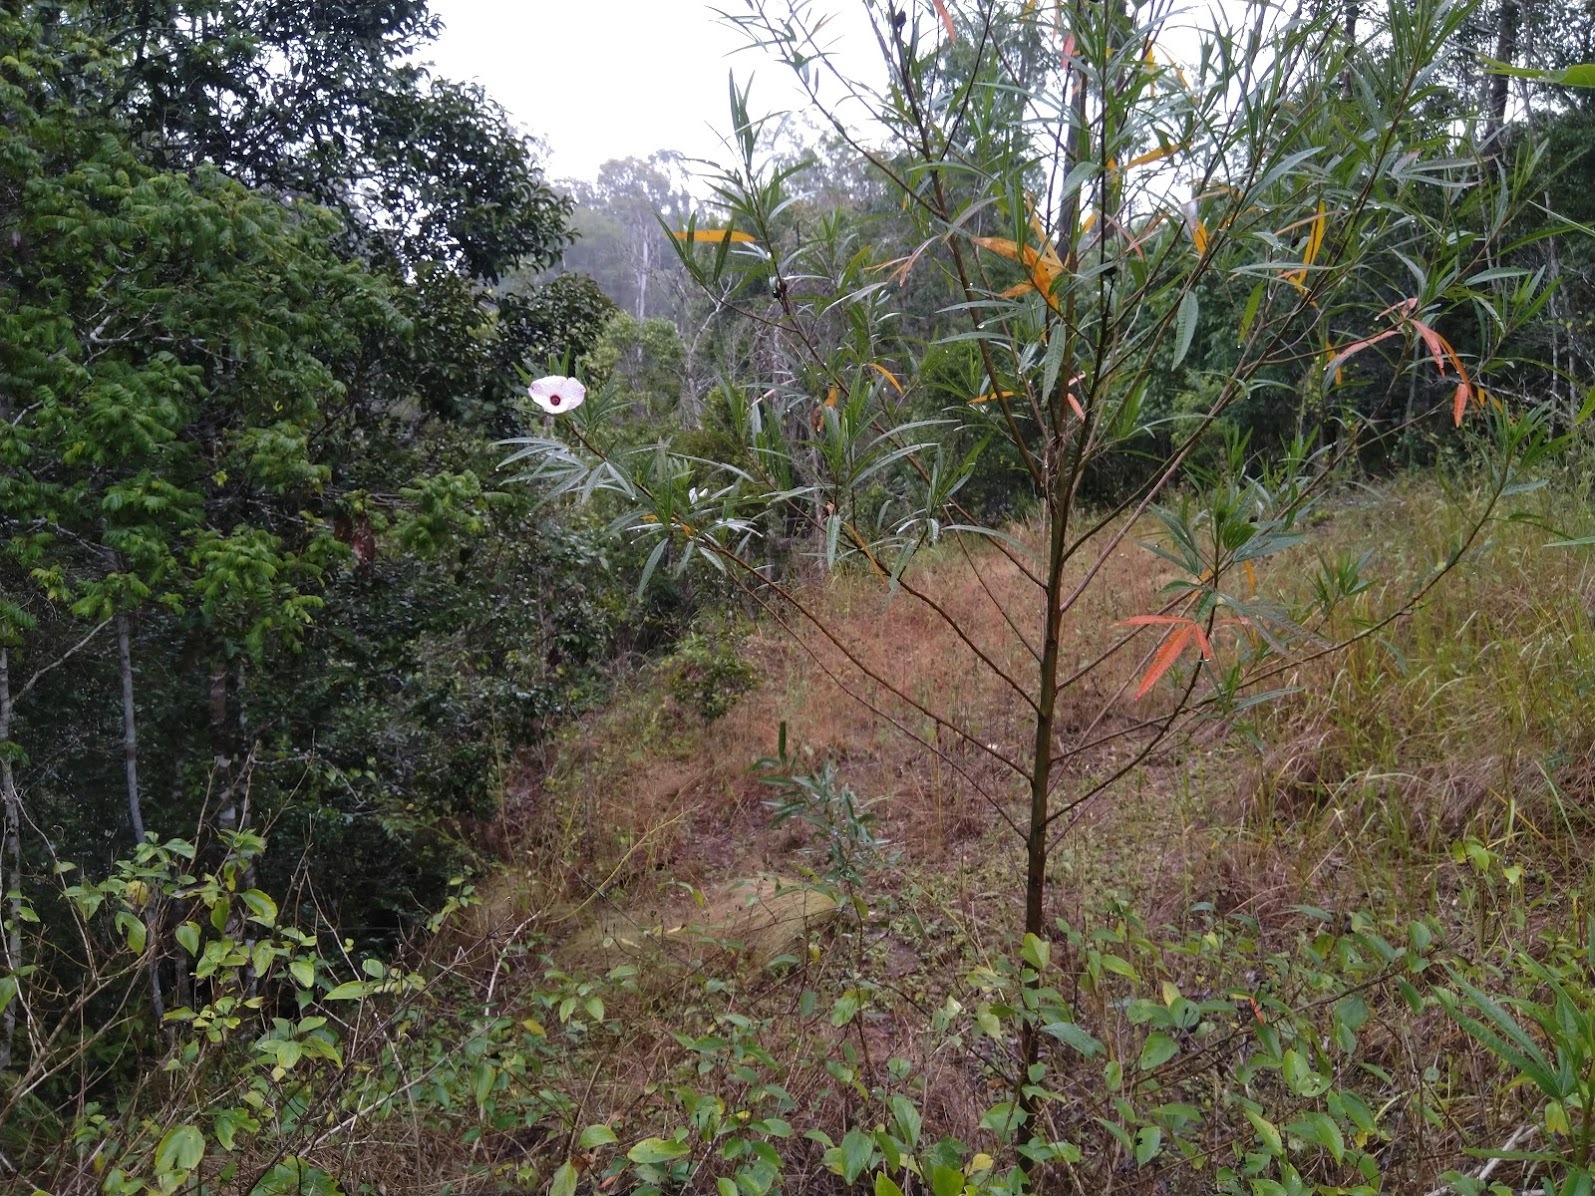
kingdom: Plantae
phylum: Tracheophyta
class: Magnoliopsida
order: Malvales
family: Malvaceae
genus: Hibiscus
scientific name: Hibiscus heterophyllus
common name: Queensland-sorrel
